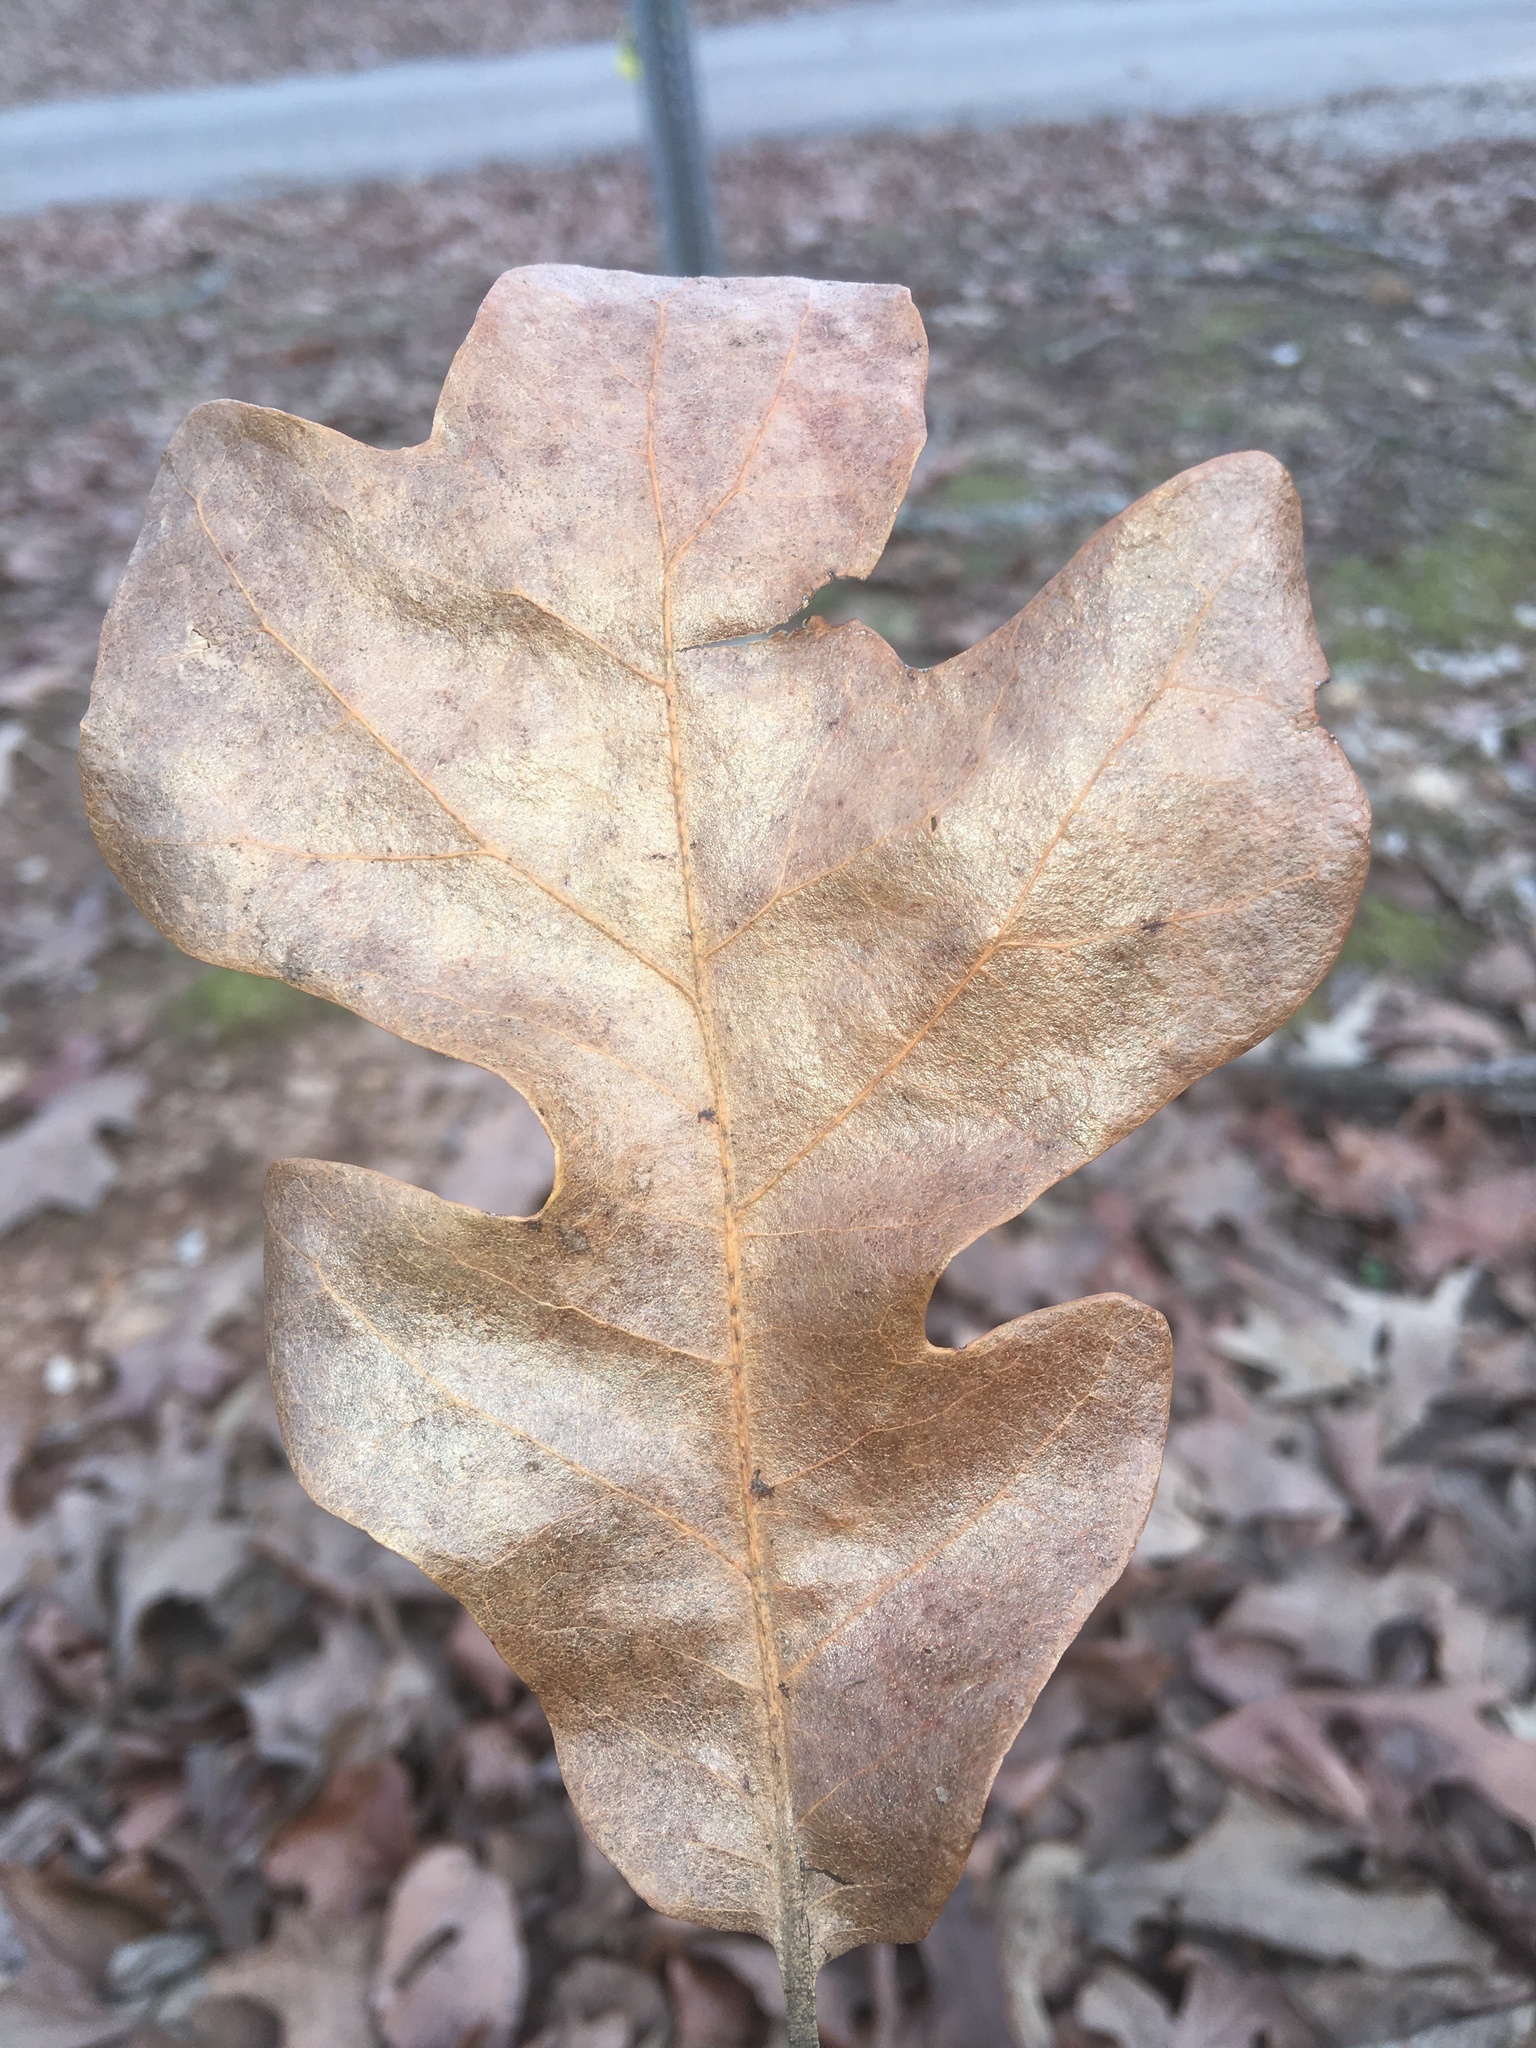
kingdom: Plantae
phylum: Tracheophyta
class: Magnoliopsida
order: Fagales
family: Fagaceae
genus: Quercus
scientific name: Quercus stellata
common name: Post oak
